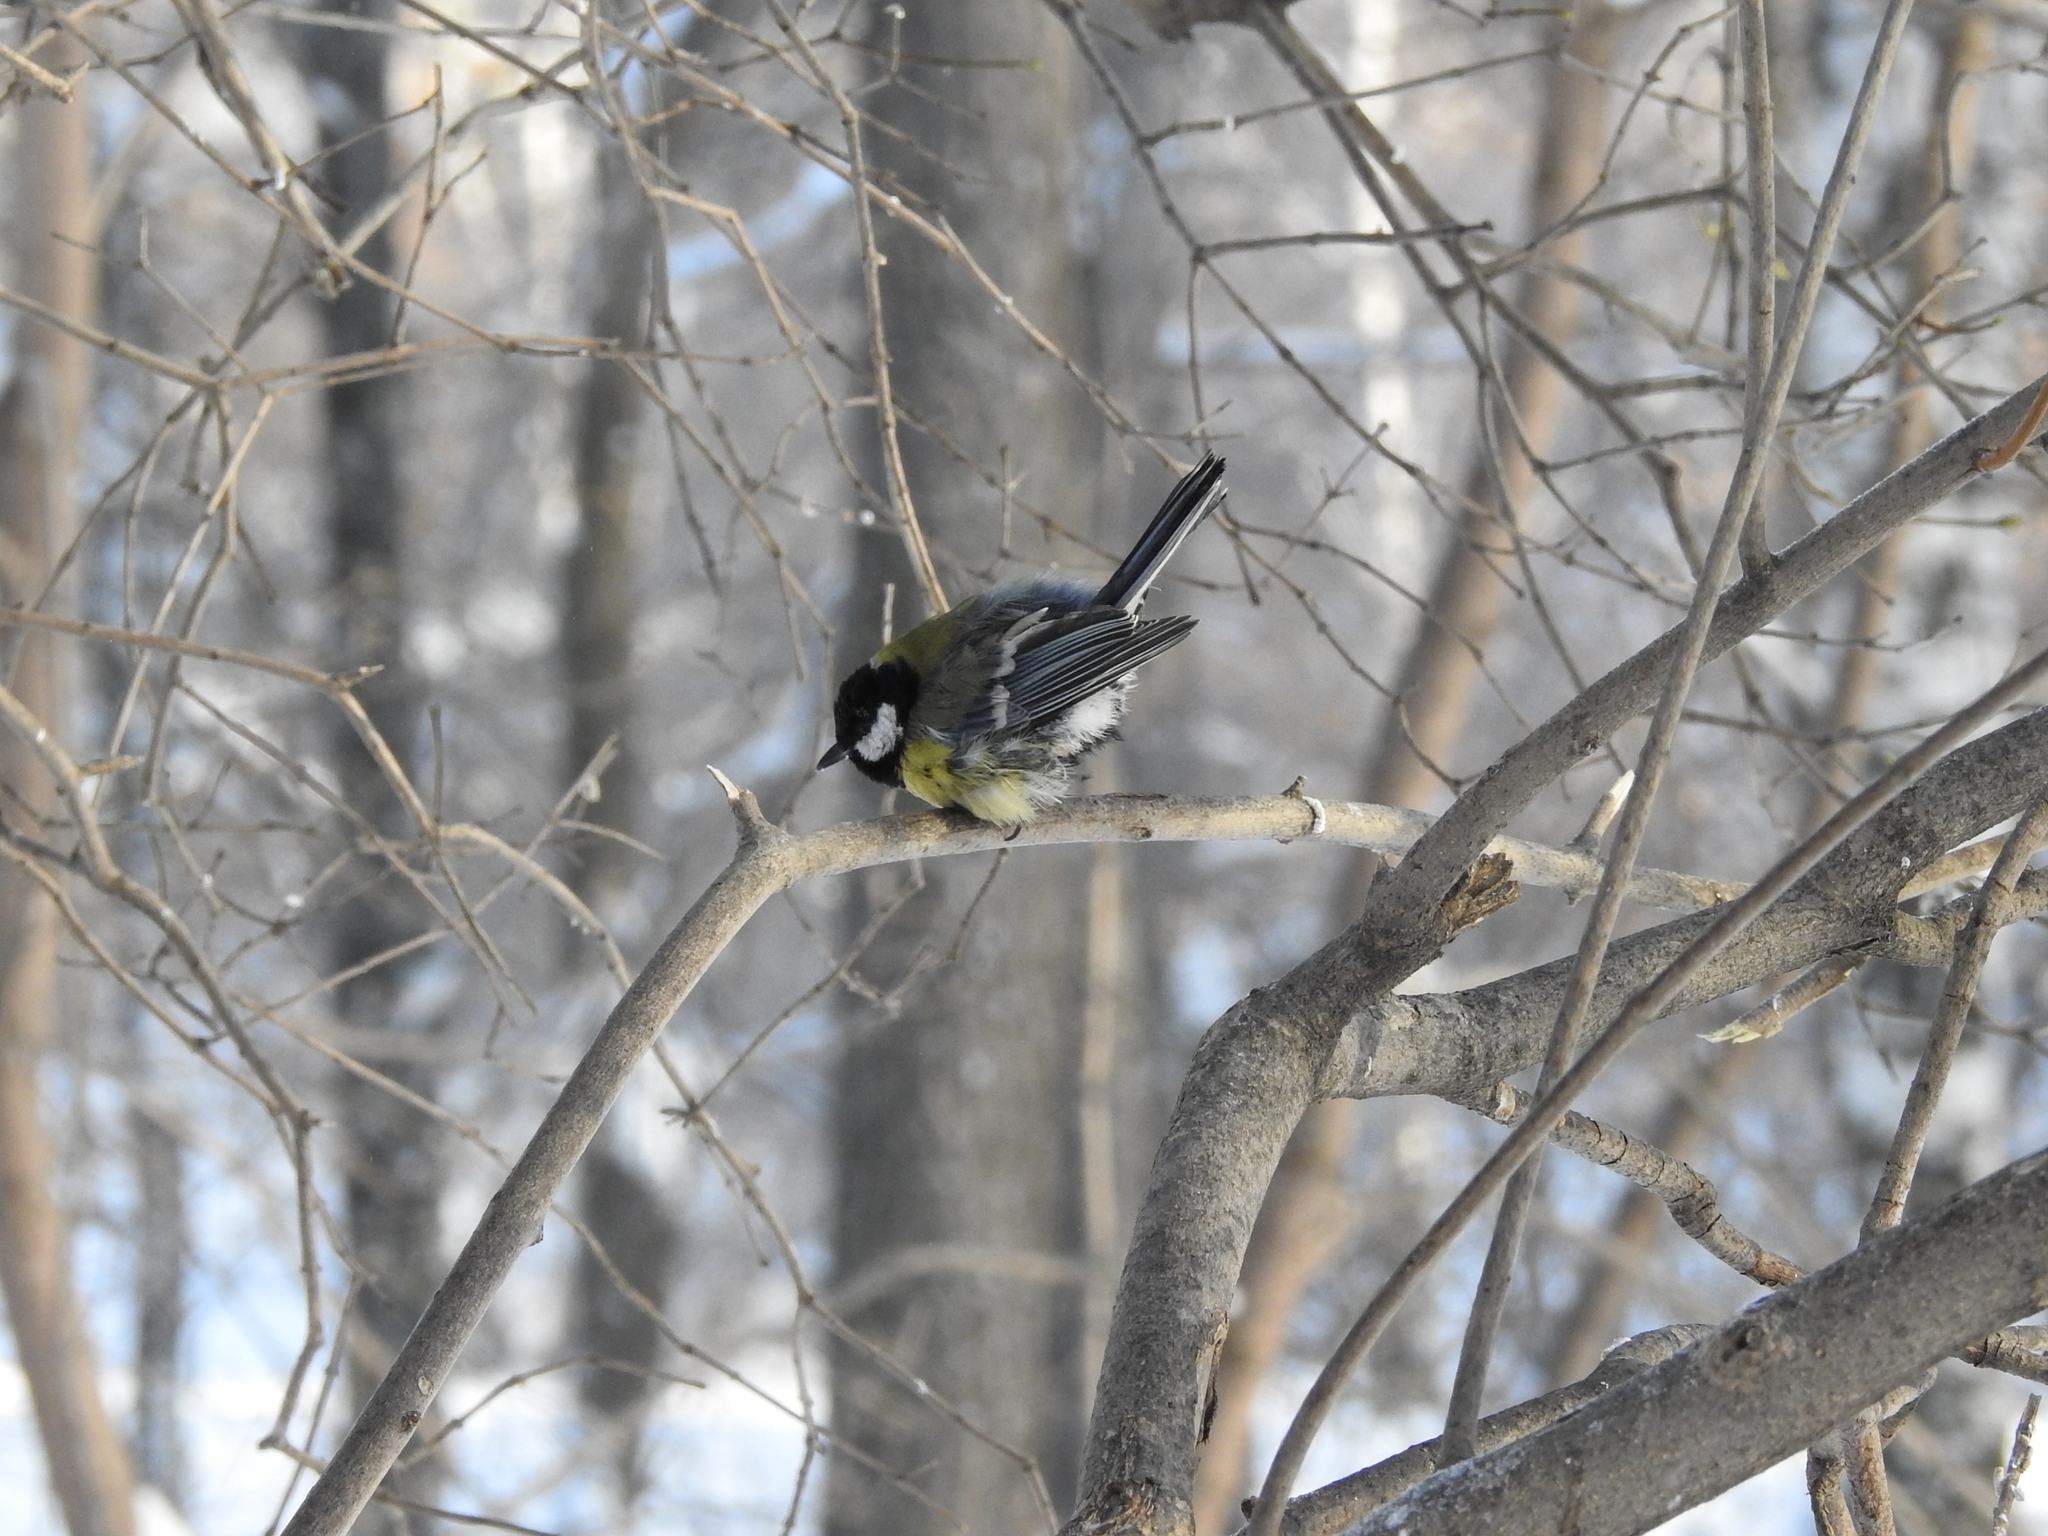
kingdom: Animalia
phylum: Chordata
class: Aves
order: Passeriformes
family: Paridae
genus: Parus
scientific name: Parus major
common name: Great tit
